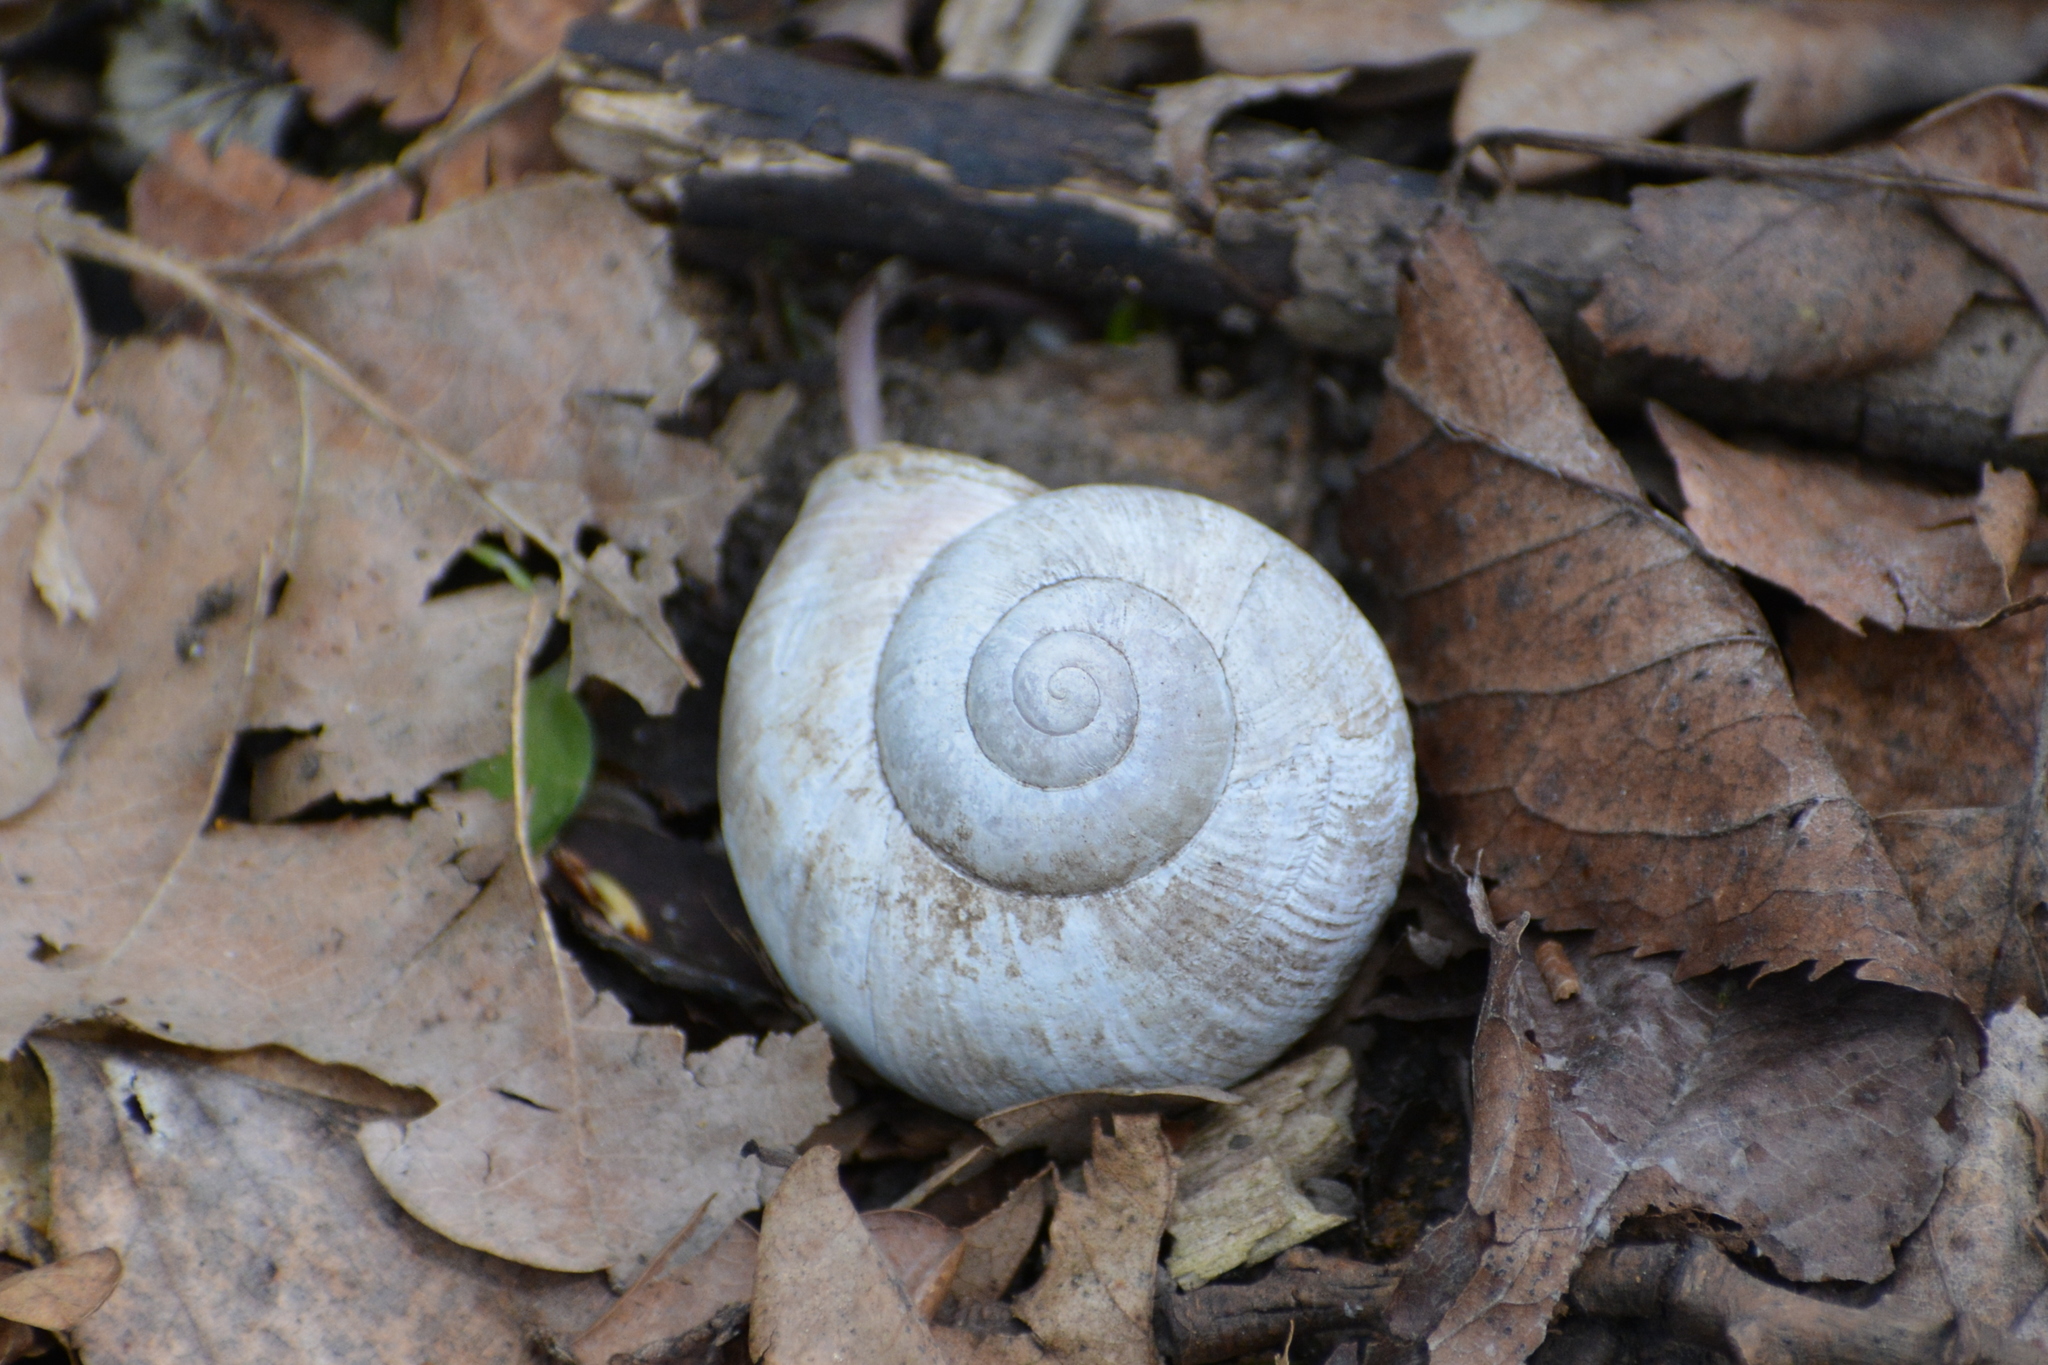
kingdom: Animalia
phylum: Mollusca
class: Gastropoda
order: Stylommatophora
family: Helicidae
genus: Helix
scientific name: Helix pomatia
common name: Roman snail
